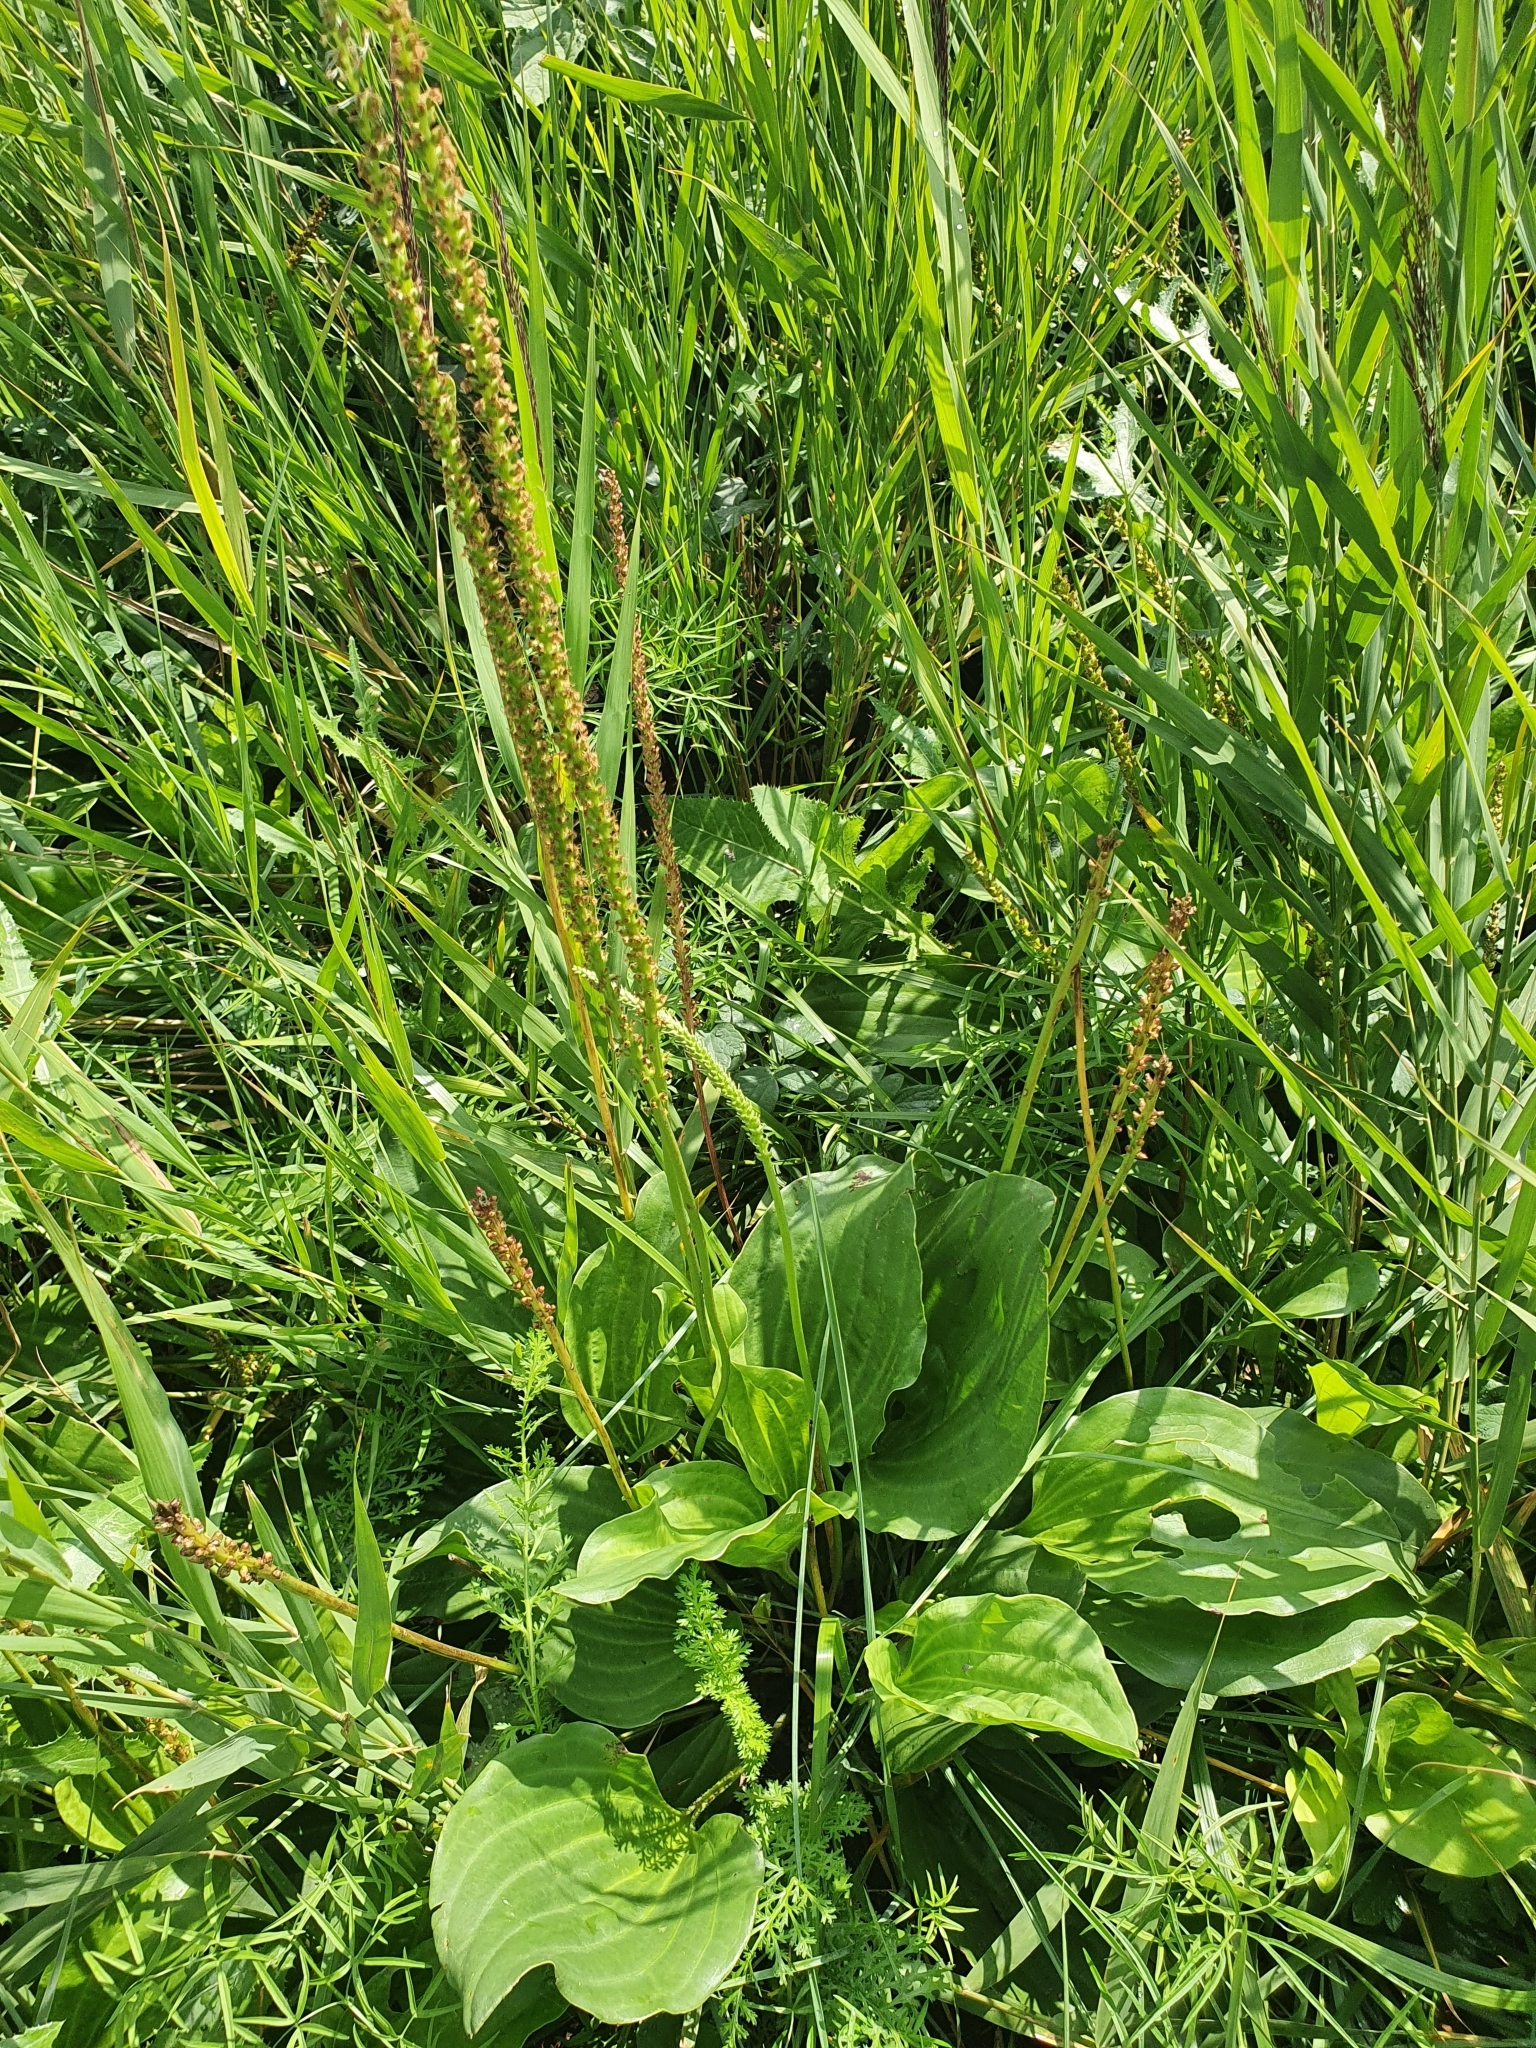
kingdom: Plantae
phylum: Tracheophyta
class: Magnoliopsida
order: Lamiales
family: Plantaginaceae
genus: Plantago
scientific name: Plantago cornuti
